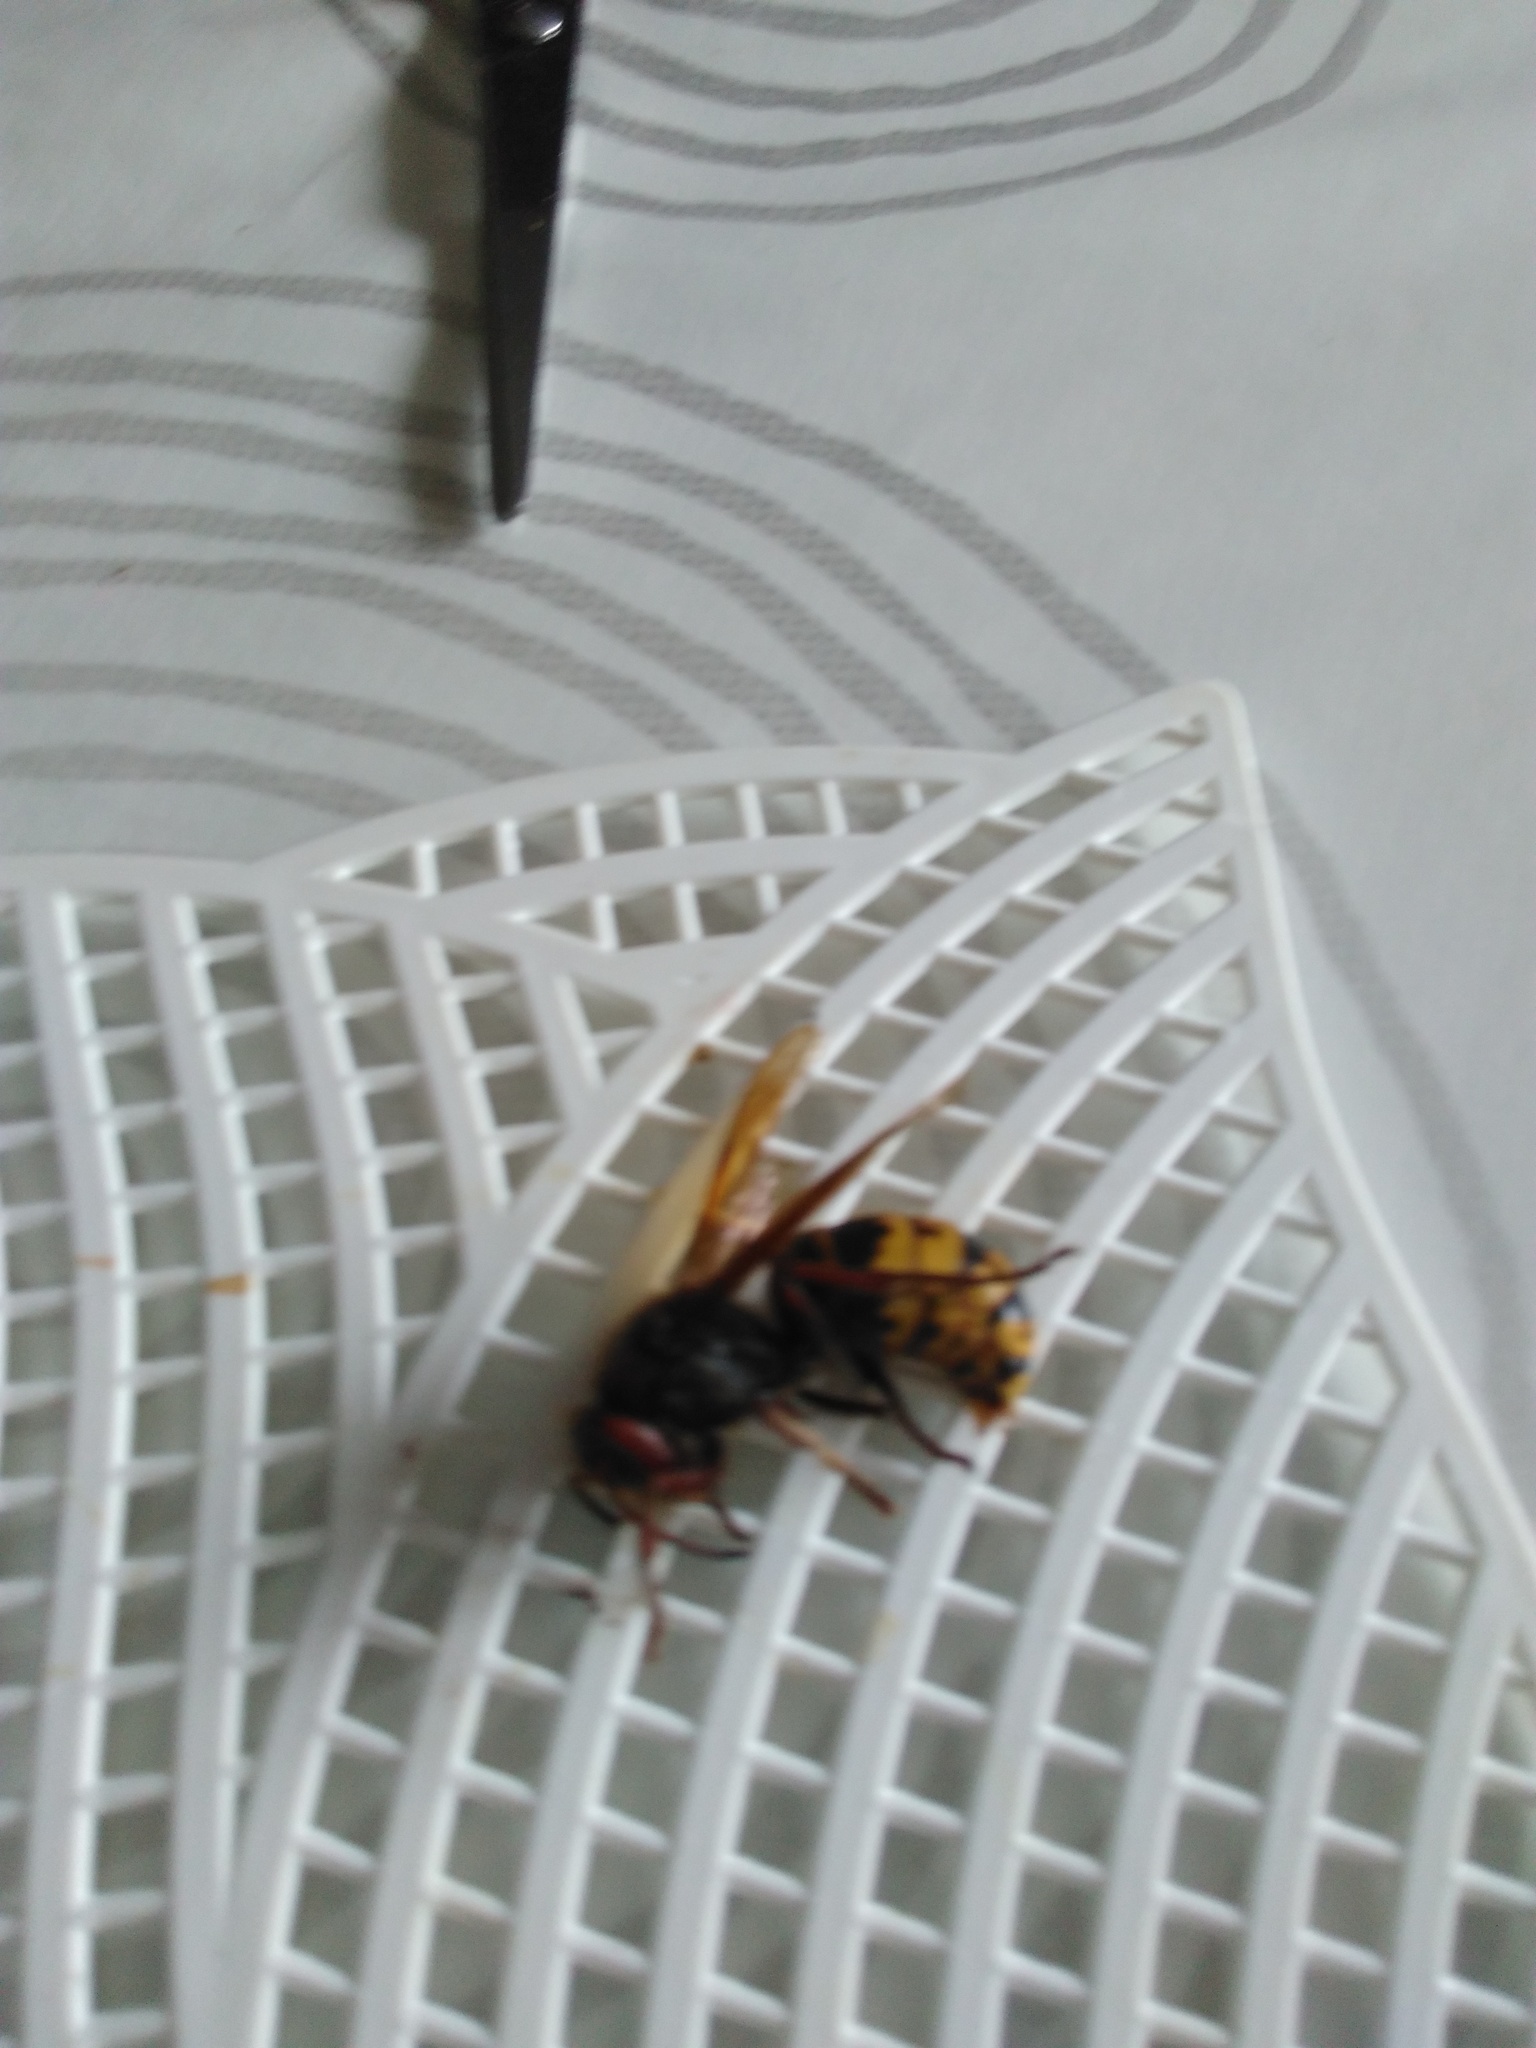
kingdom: Animalia
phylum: Arthropoda
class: Insecta
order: Hymenoptera
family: Vespidae
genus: Vespa
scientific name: Vespa crabro
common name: Hornet
